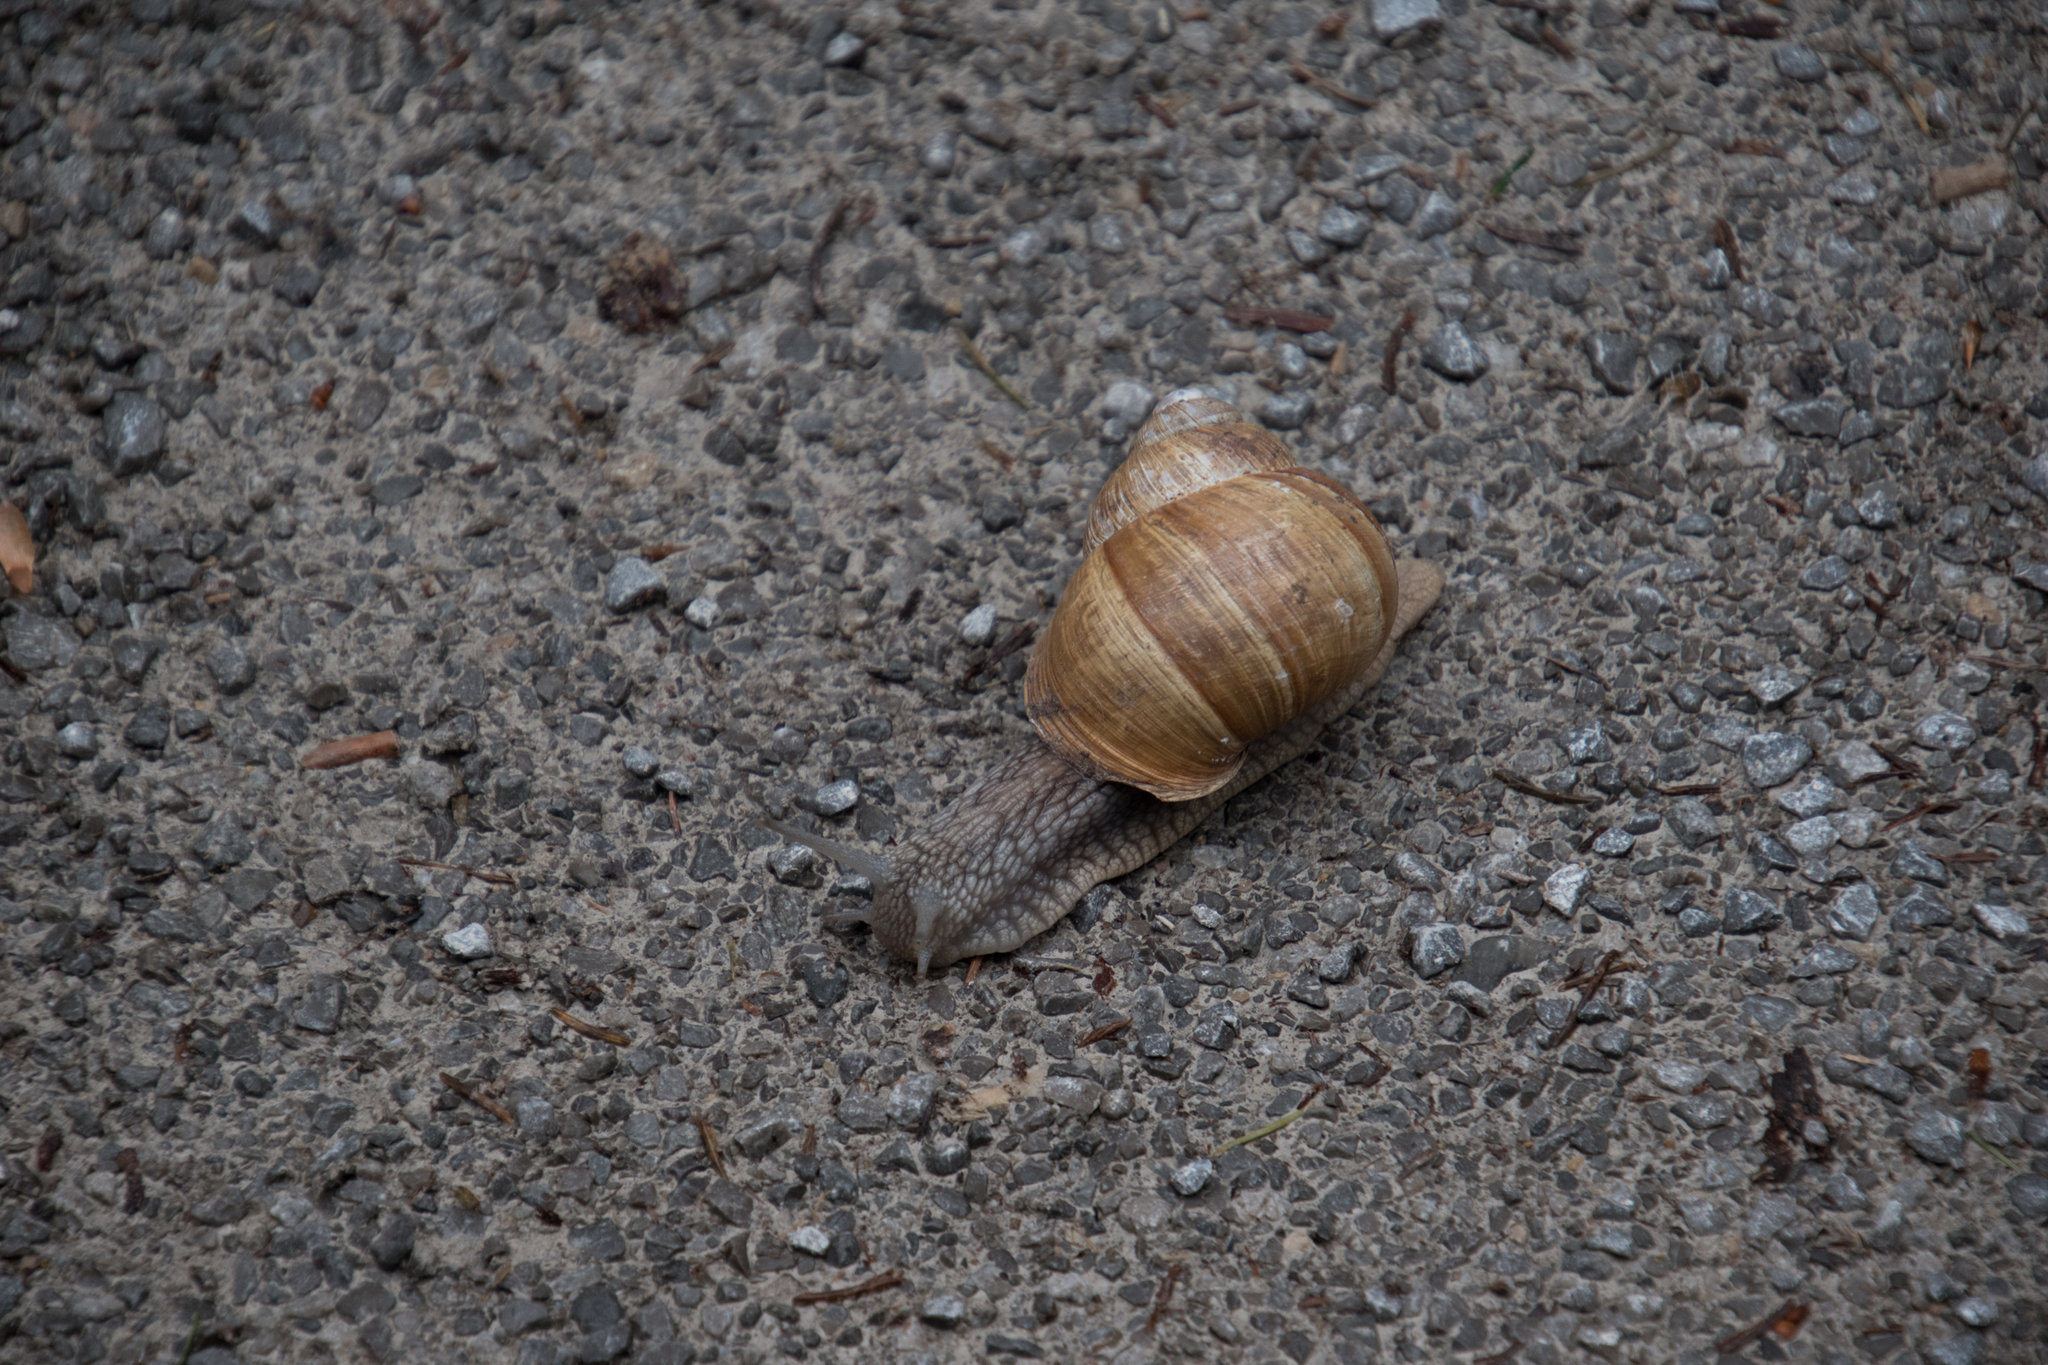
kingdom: Animalia
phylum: Mollusca
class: Gastropoda
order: Stylommatophora
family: Helicidae
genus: Helix
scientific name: Helix pomatia
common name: Roman snail
